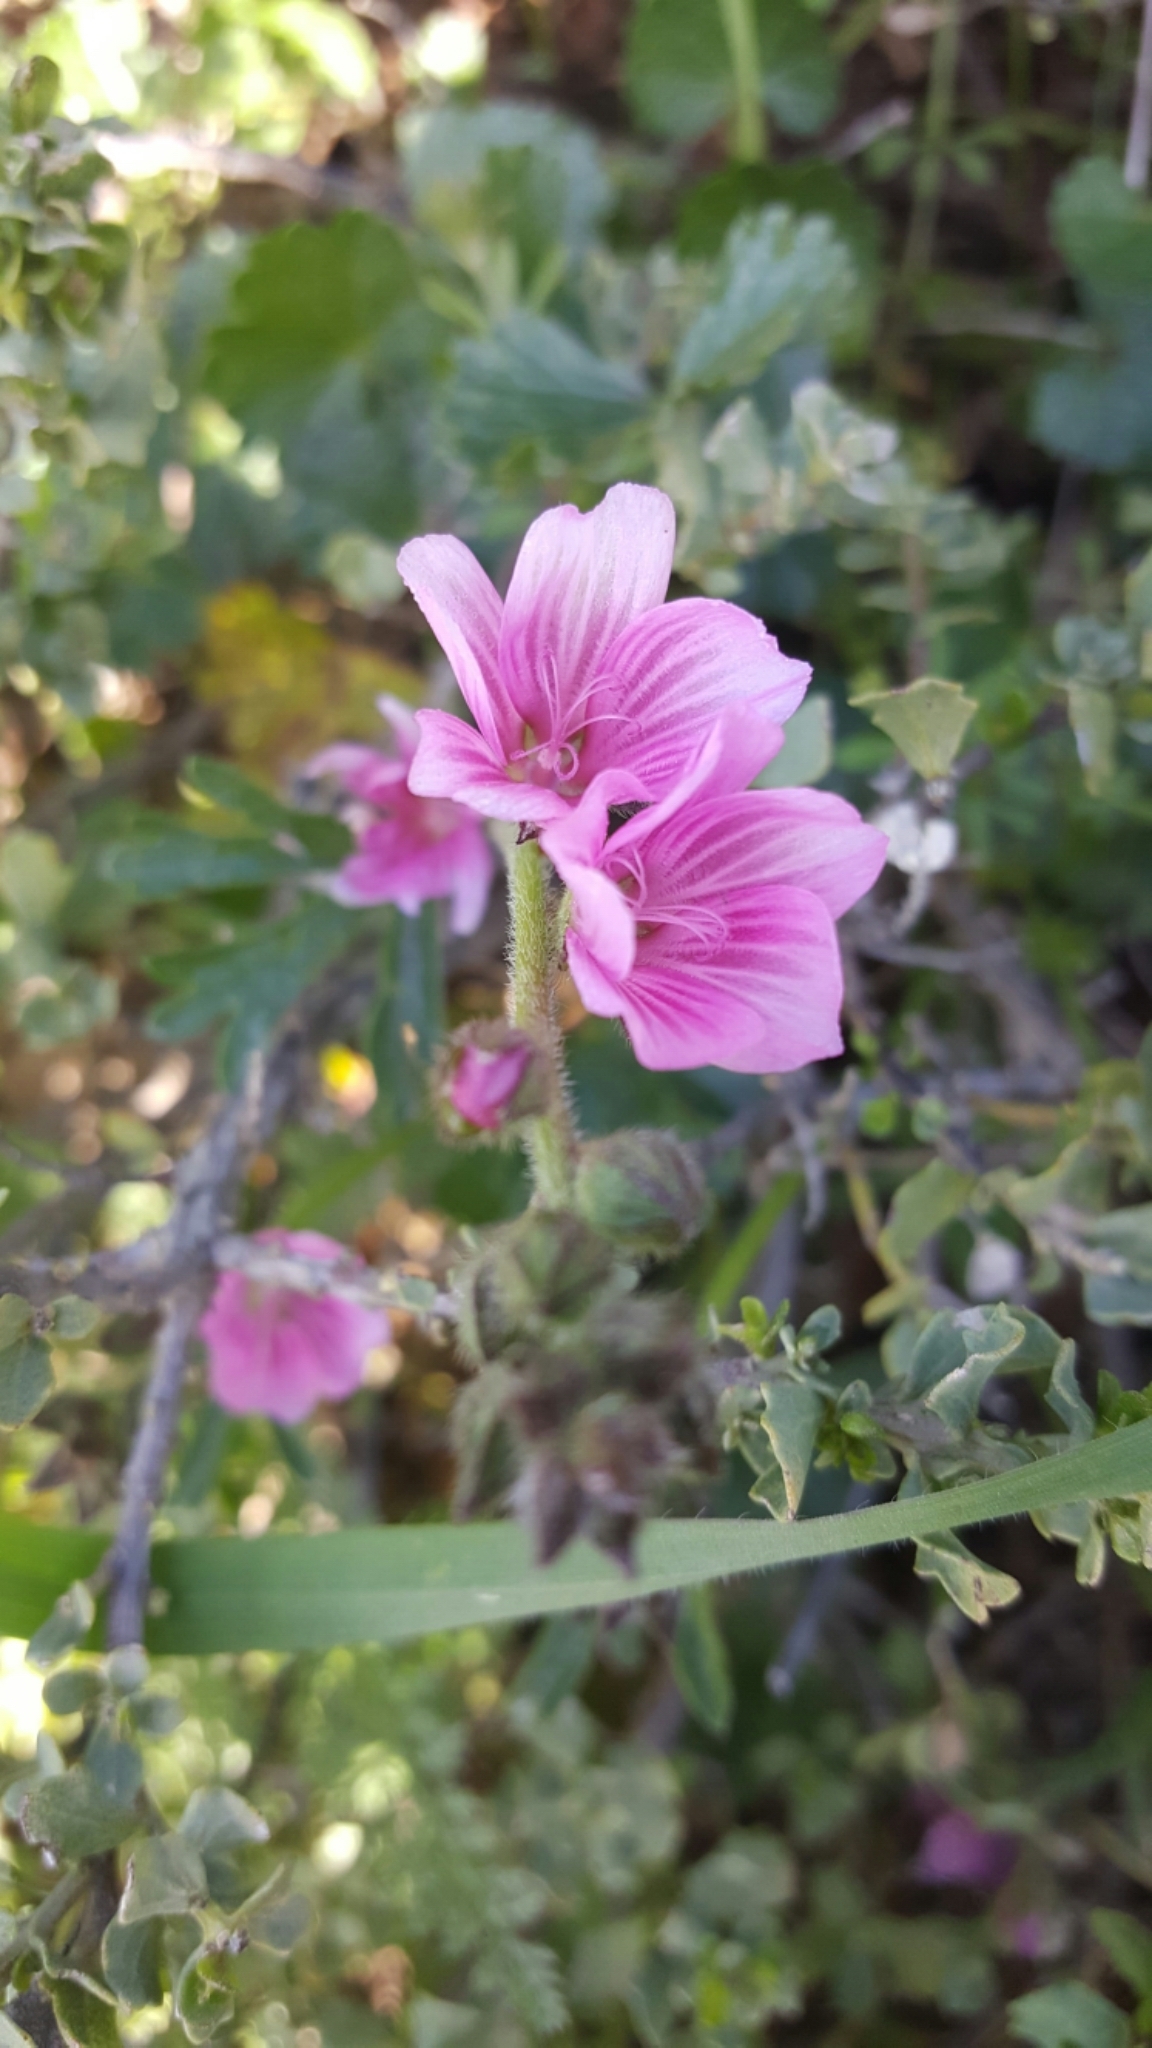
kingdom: Plantae
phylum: Tracheophyta
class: Magnoliopsida
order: Malvales
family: Malvaceae
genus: Sidalcea
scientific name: Sidalcea malviflora
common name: Greek mallow
